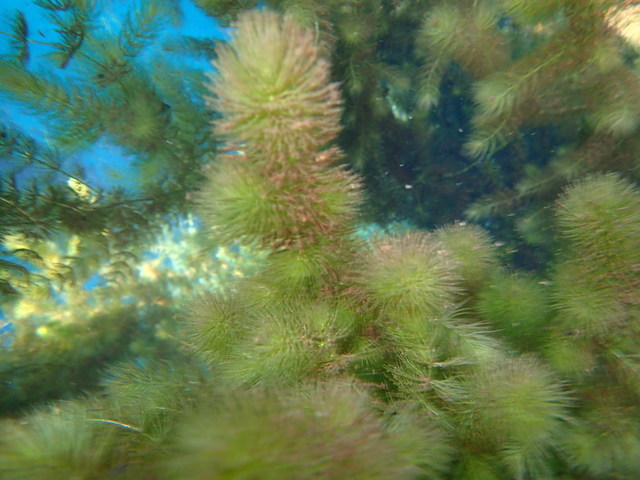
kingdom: Plantae
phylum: Tracheophyta
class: Magnoliopsida
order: Ceratophyllales
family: Ceratophyllaceae
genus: Ceratophyllum
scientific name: Ceratophyllum demersum
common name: Rigid hornwort
